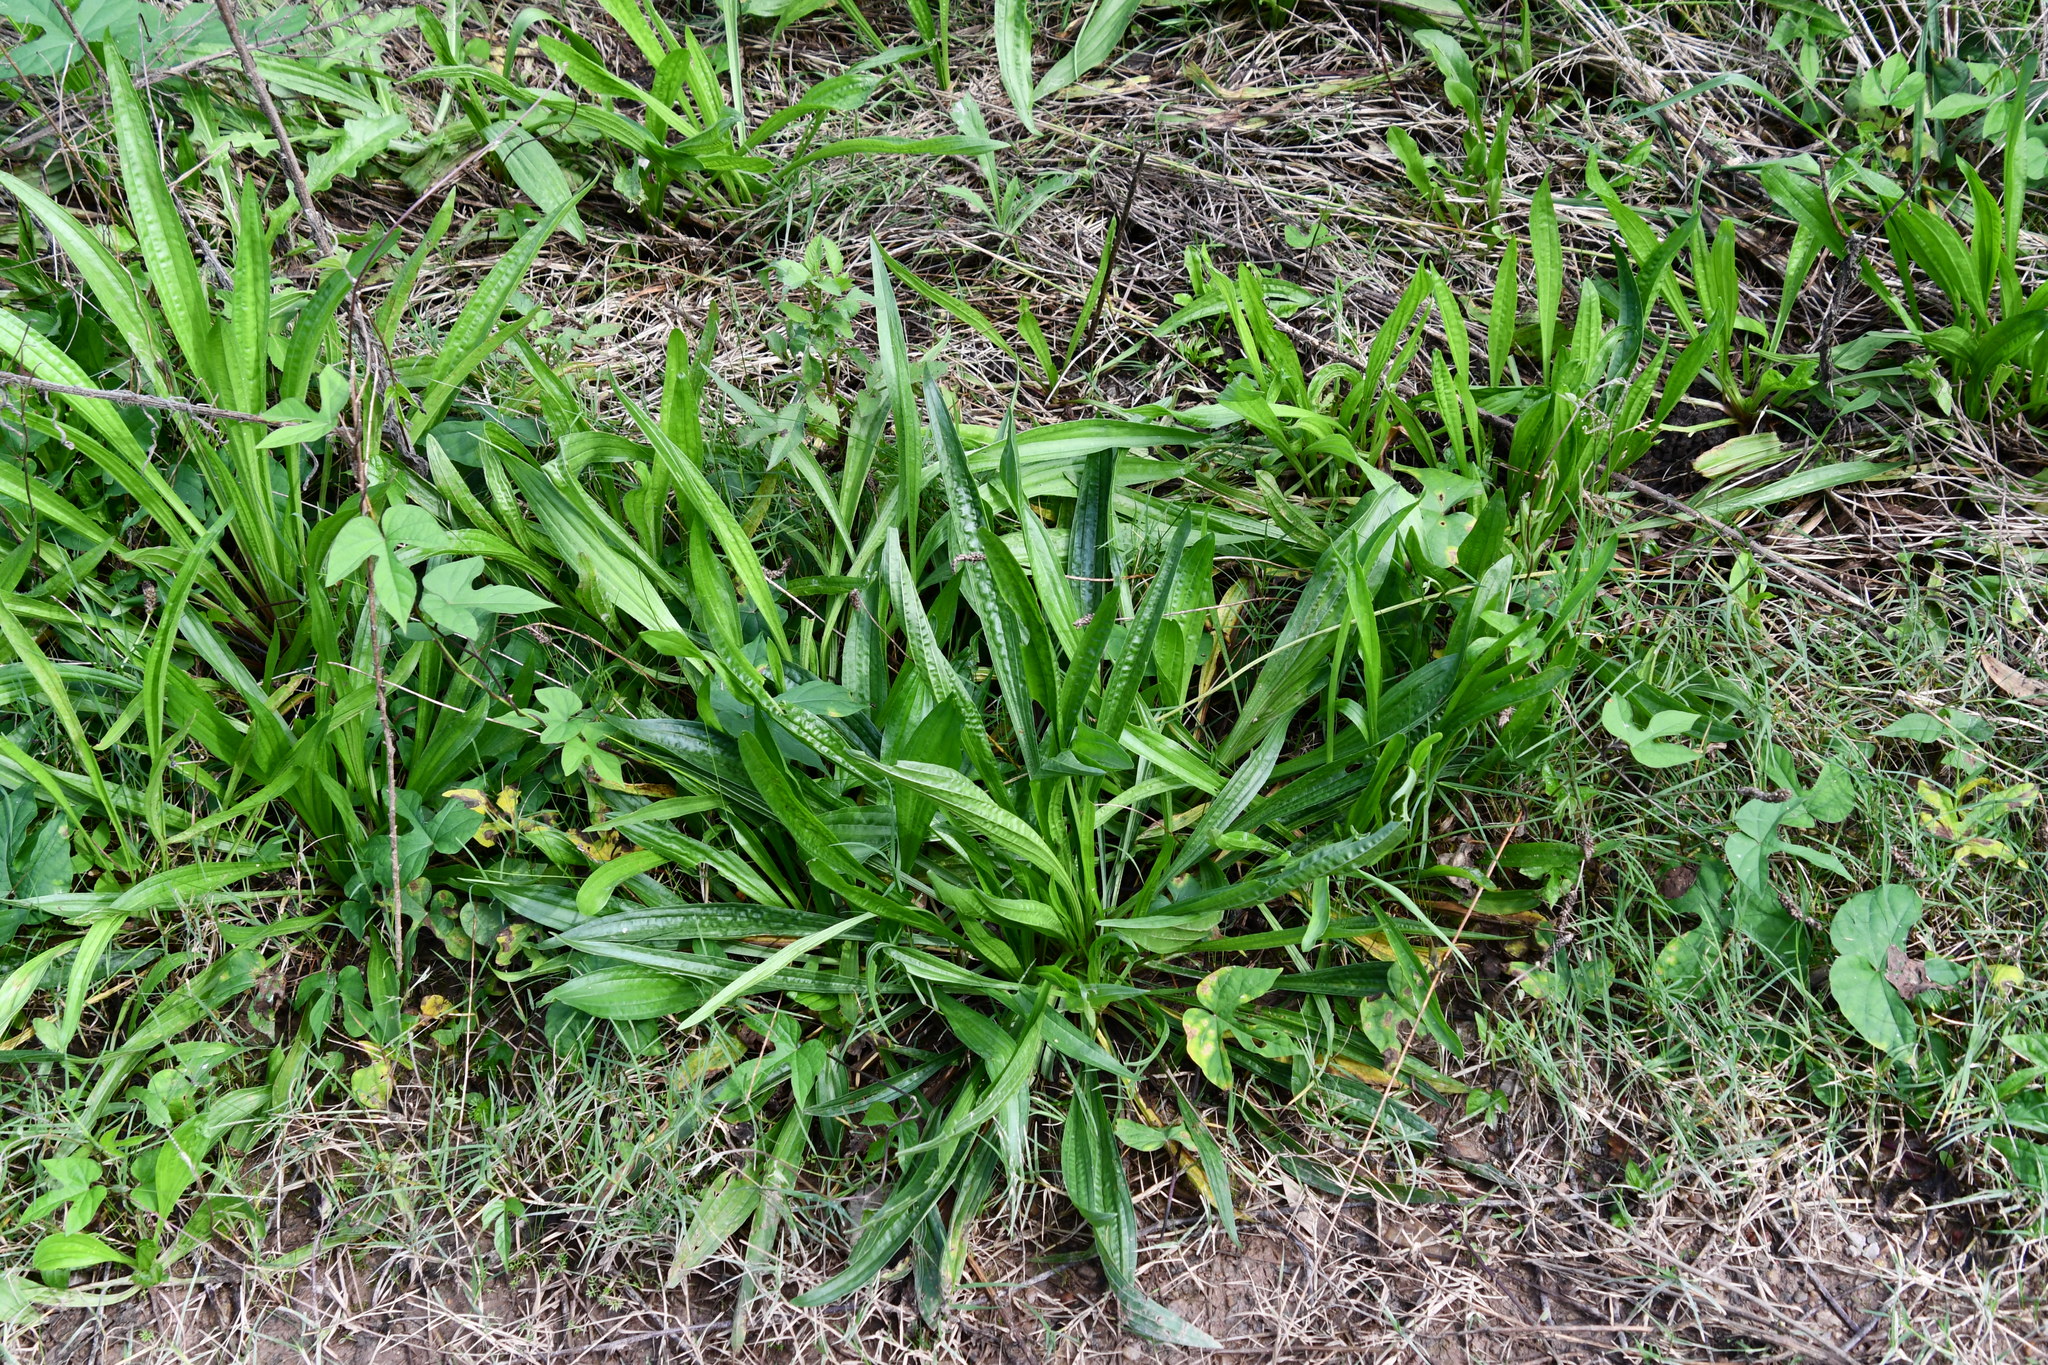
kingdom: Plantae
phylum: Tracheophyta
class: Magnoliopsida
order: Lamiales
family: Plantaginaceae
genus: Plantago
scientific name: Plantago lanceolata
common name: Ribwort plantain
